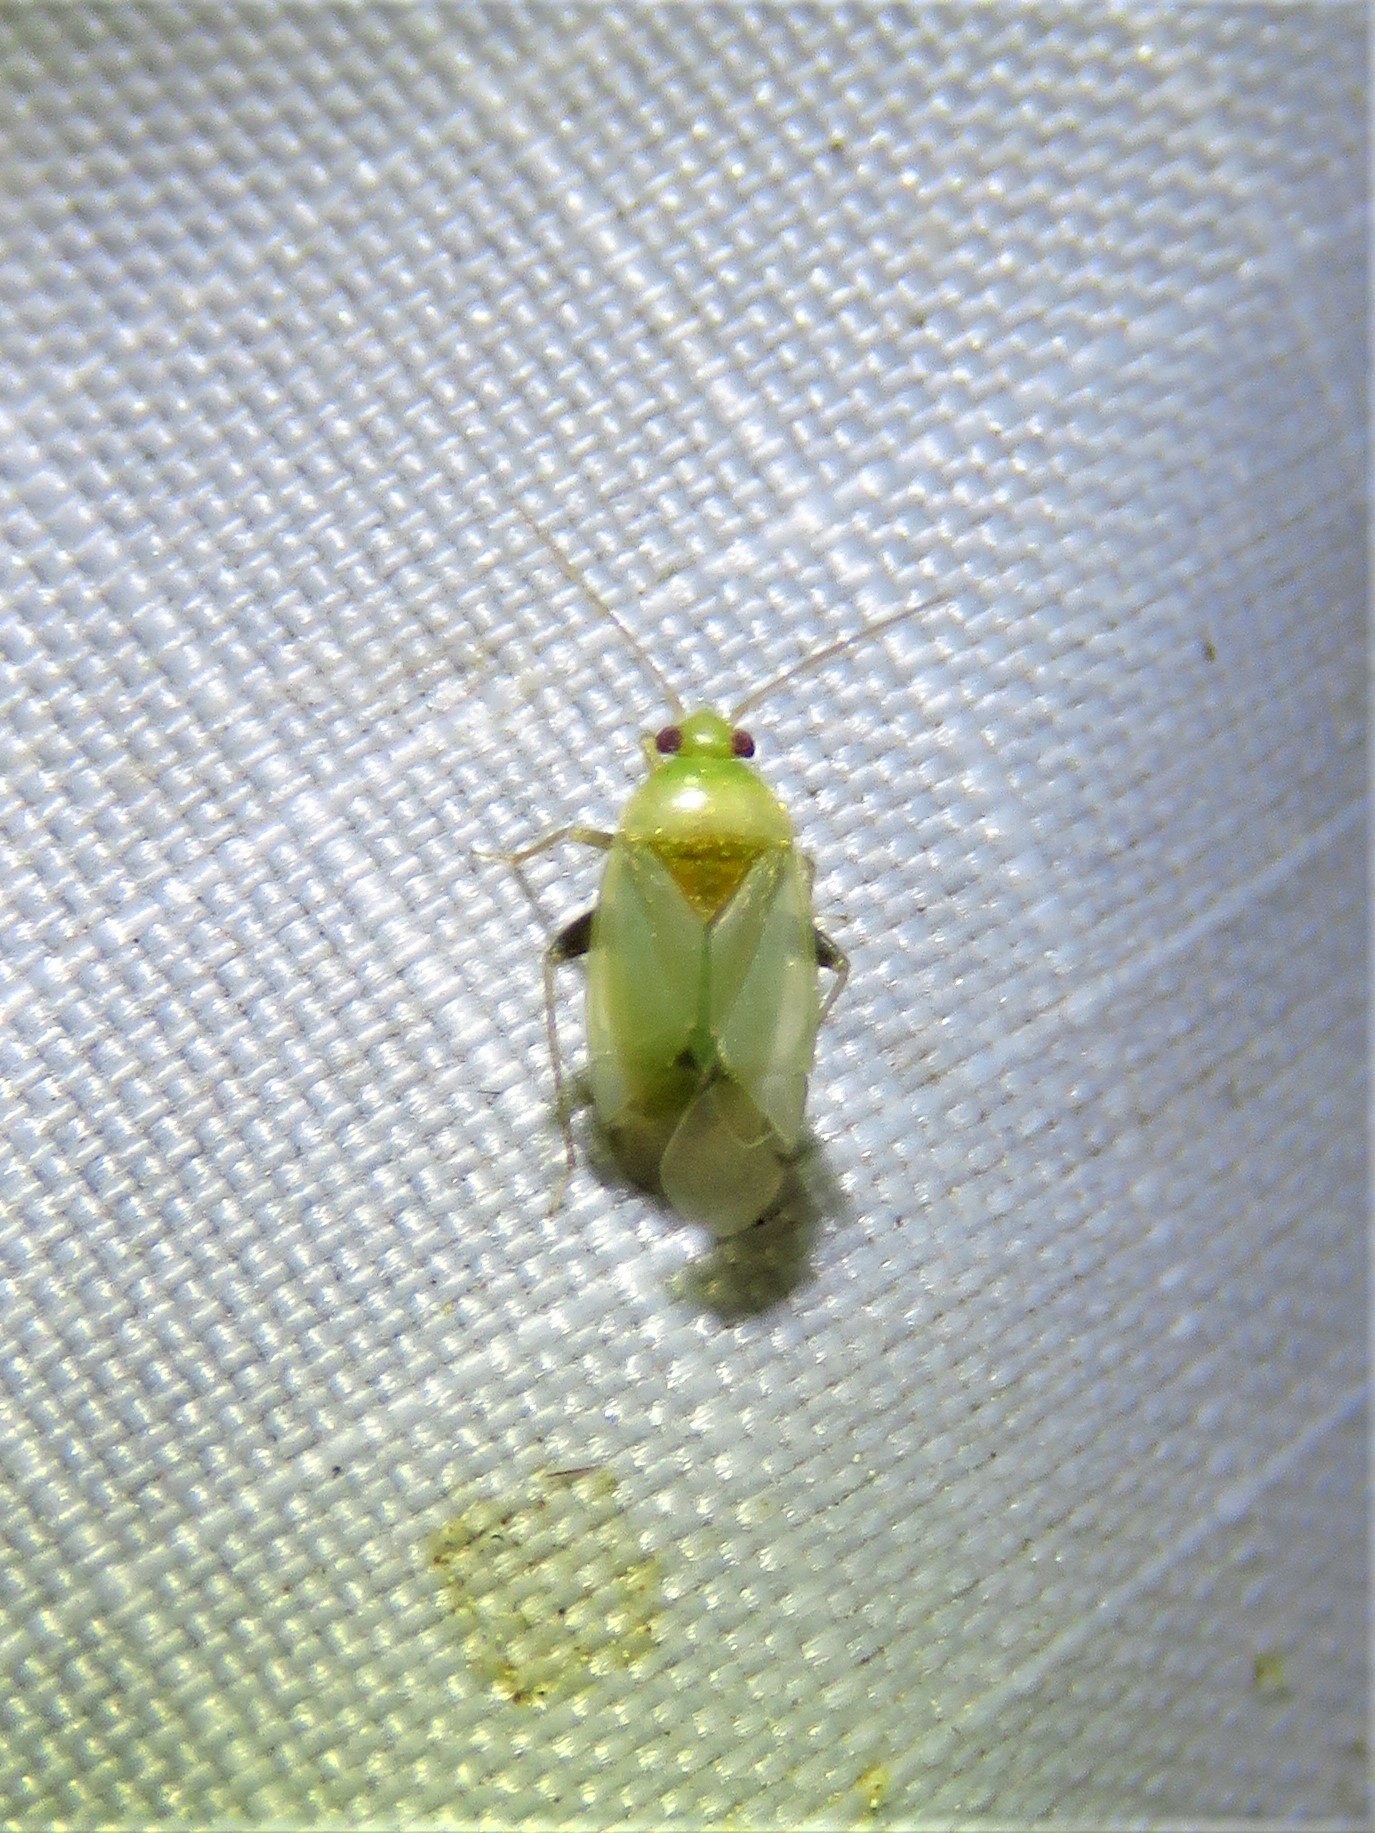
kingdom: Animalia
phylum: Arthropoda
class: Insecta
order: Hemiptera
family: Miridae
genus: Cariniocoris
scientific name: Cariniocoris geminatus
